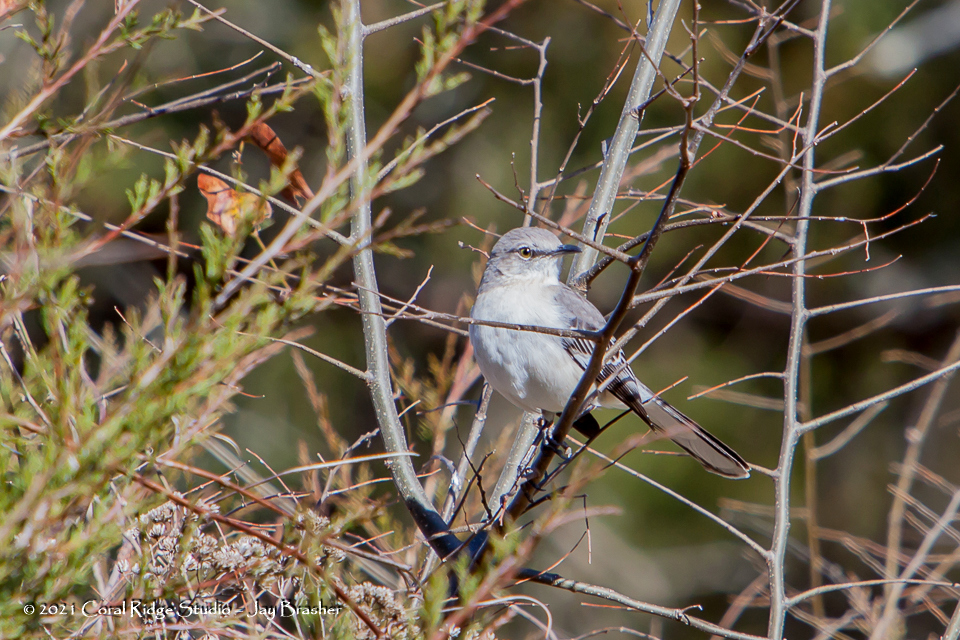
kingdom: Animalia
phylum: Chordata
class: Aves
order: Passeriformes
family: Mimidae
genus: Mimus
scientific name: Mimus polyglottos
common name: Northern mockingbird
